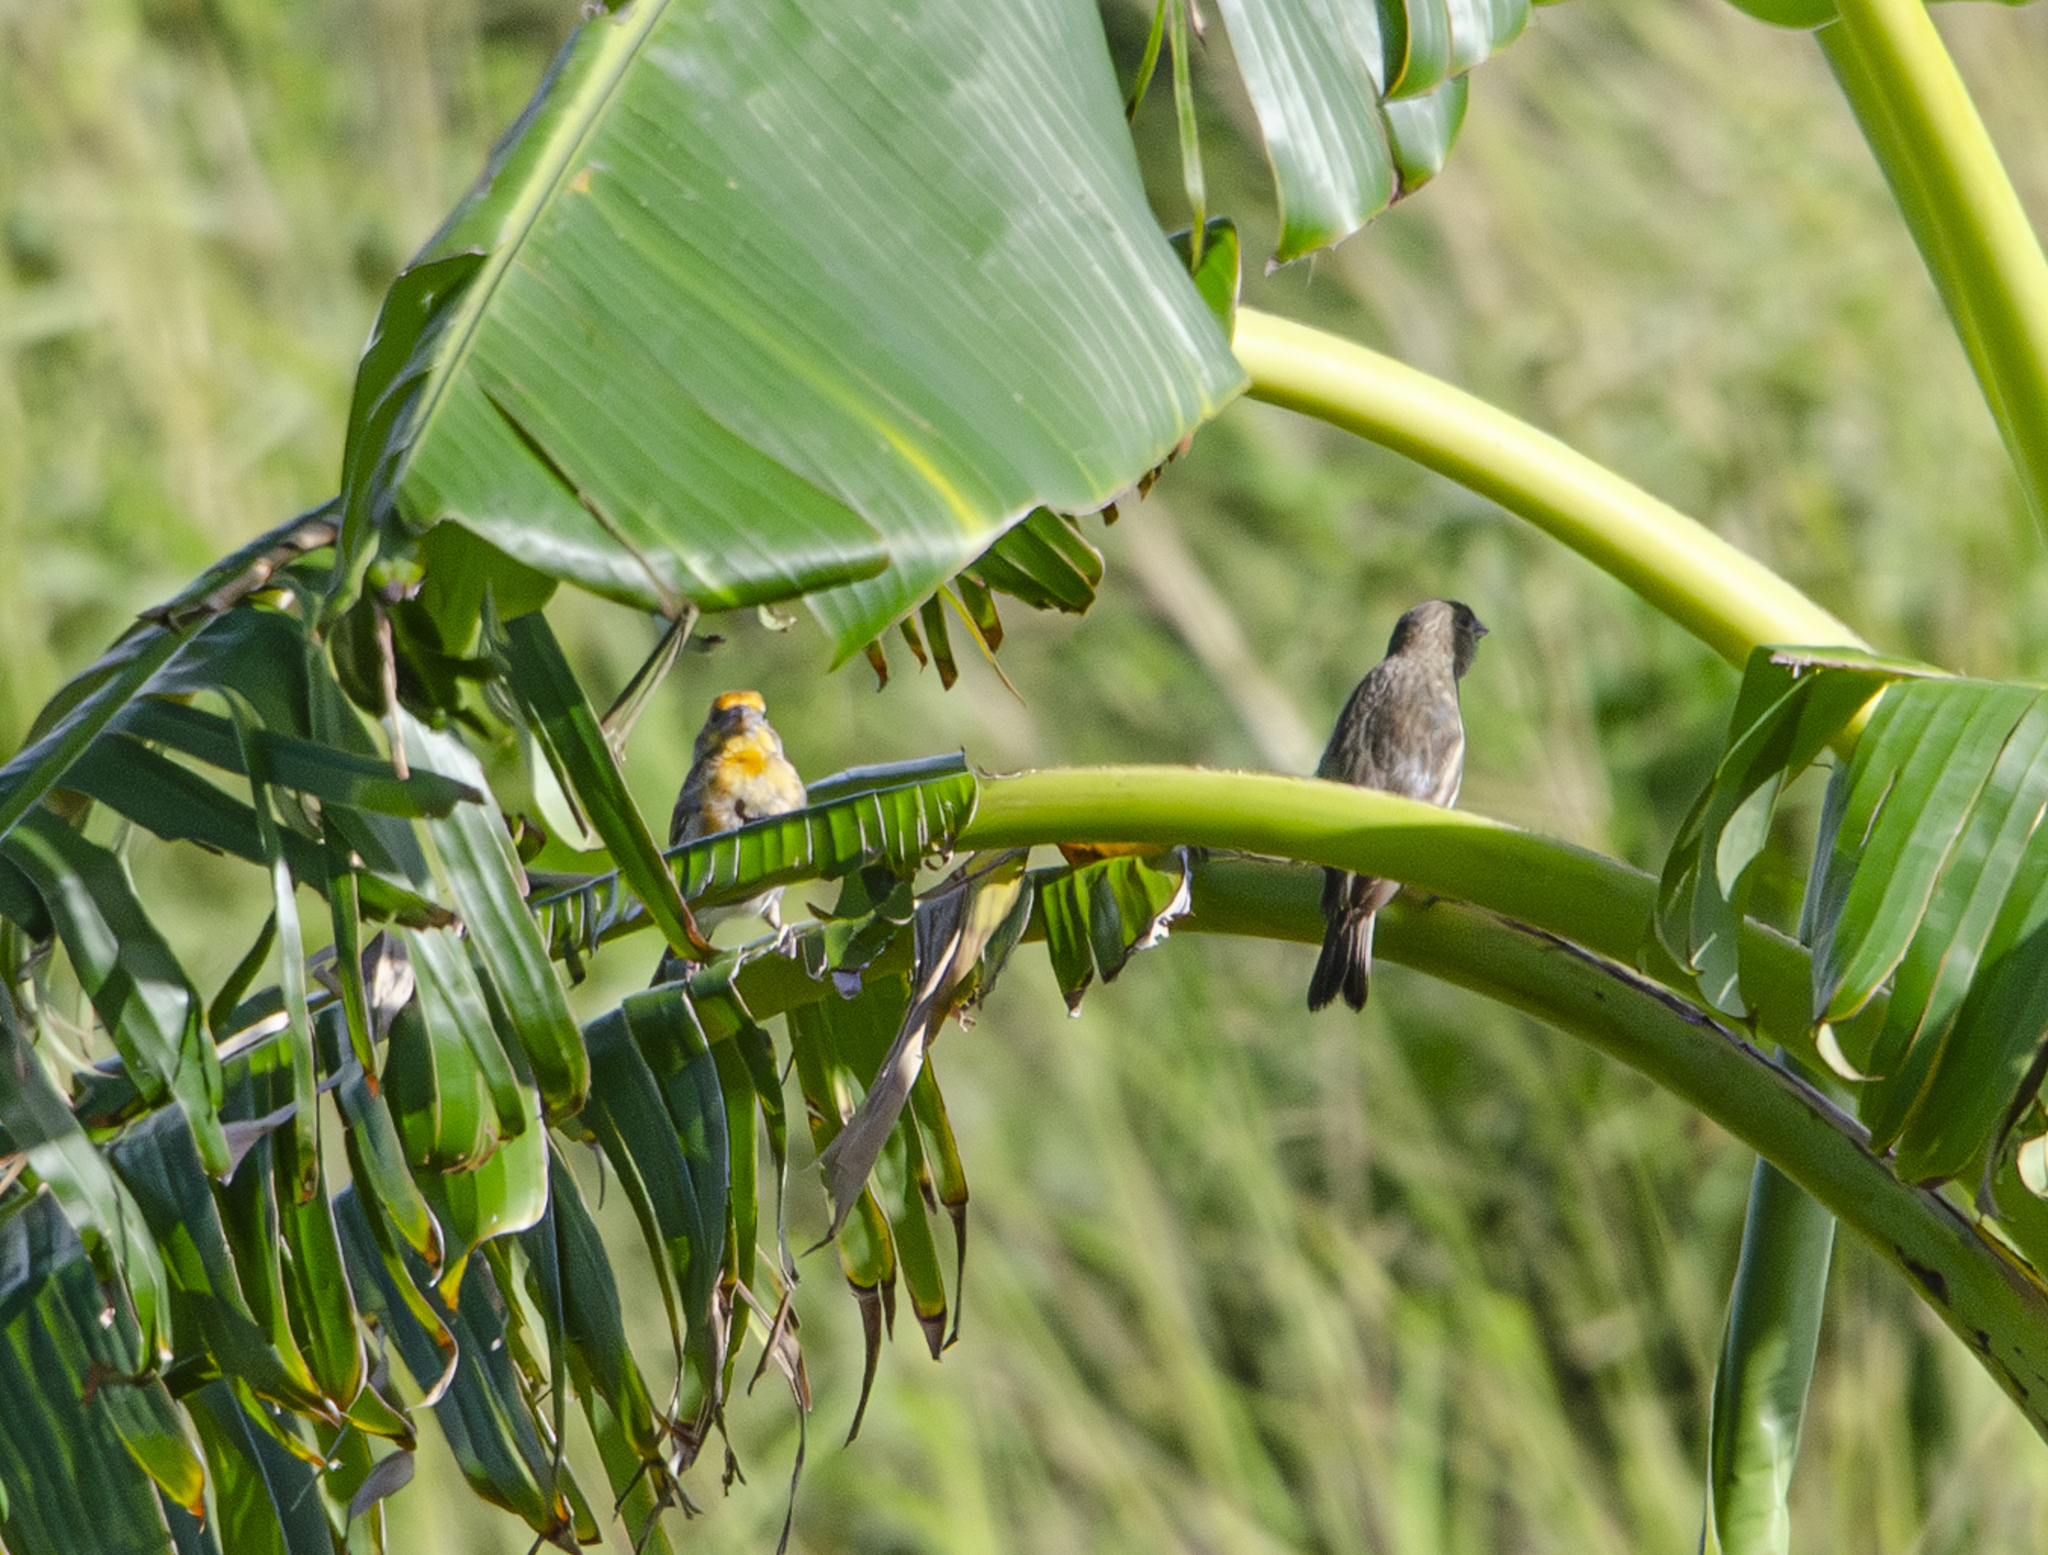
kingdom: Animalia
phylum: Chordata
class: Aves
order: Passeriformes
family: Fringillidae
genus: Haemorhous
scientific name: Haemorhous mexicanus
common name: House finch
